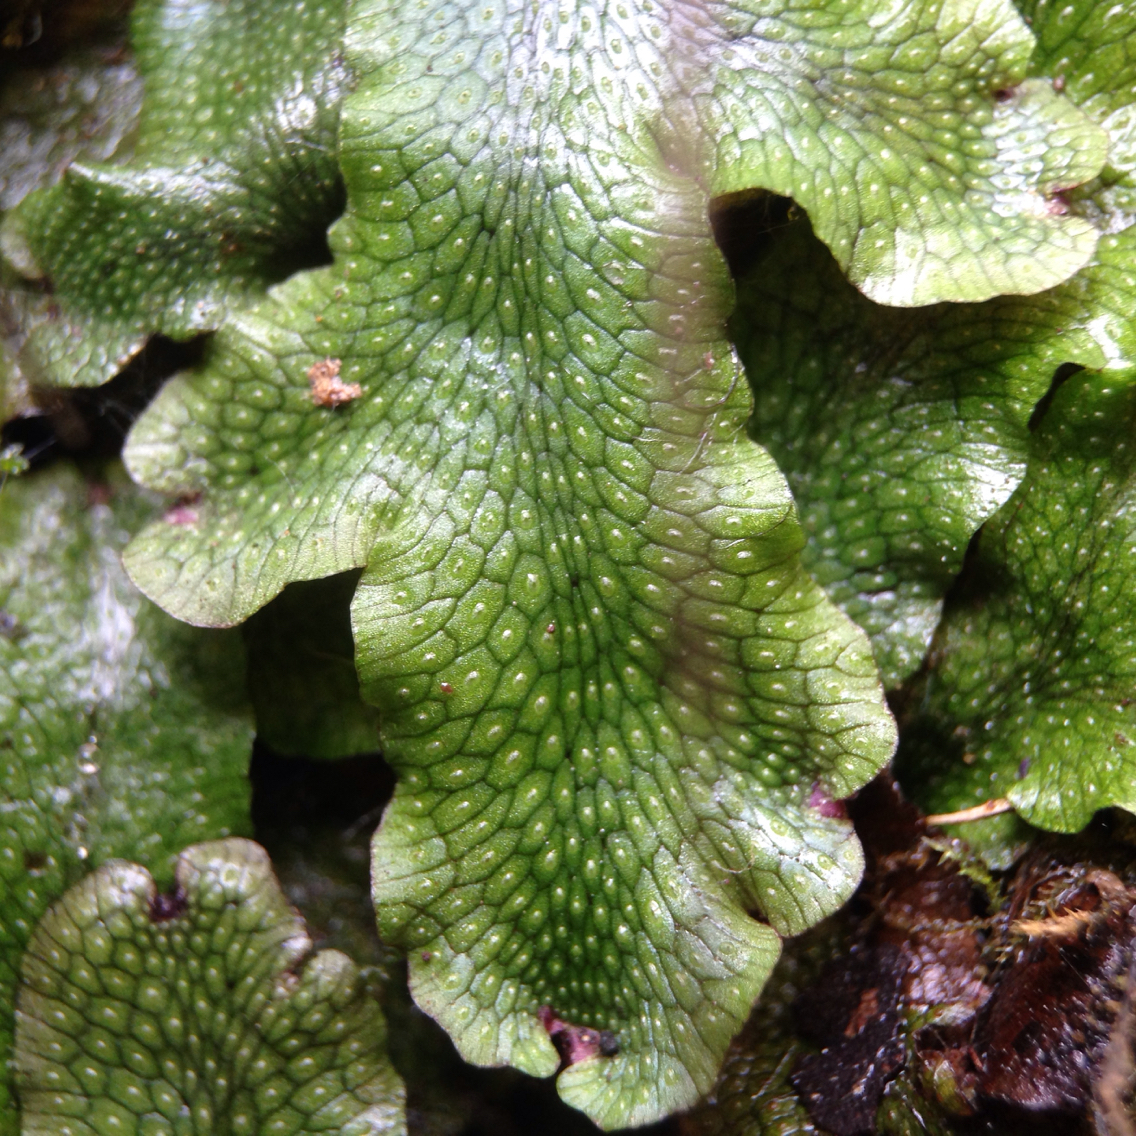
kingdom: Plantae
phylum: Marchantiophyta
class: Marchantiopsida
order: Marchantiales
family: Conocephalaceae
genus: Conocephalum
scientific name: Conocephalum salebrosum
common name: Cat-tongue liverwort
